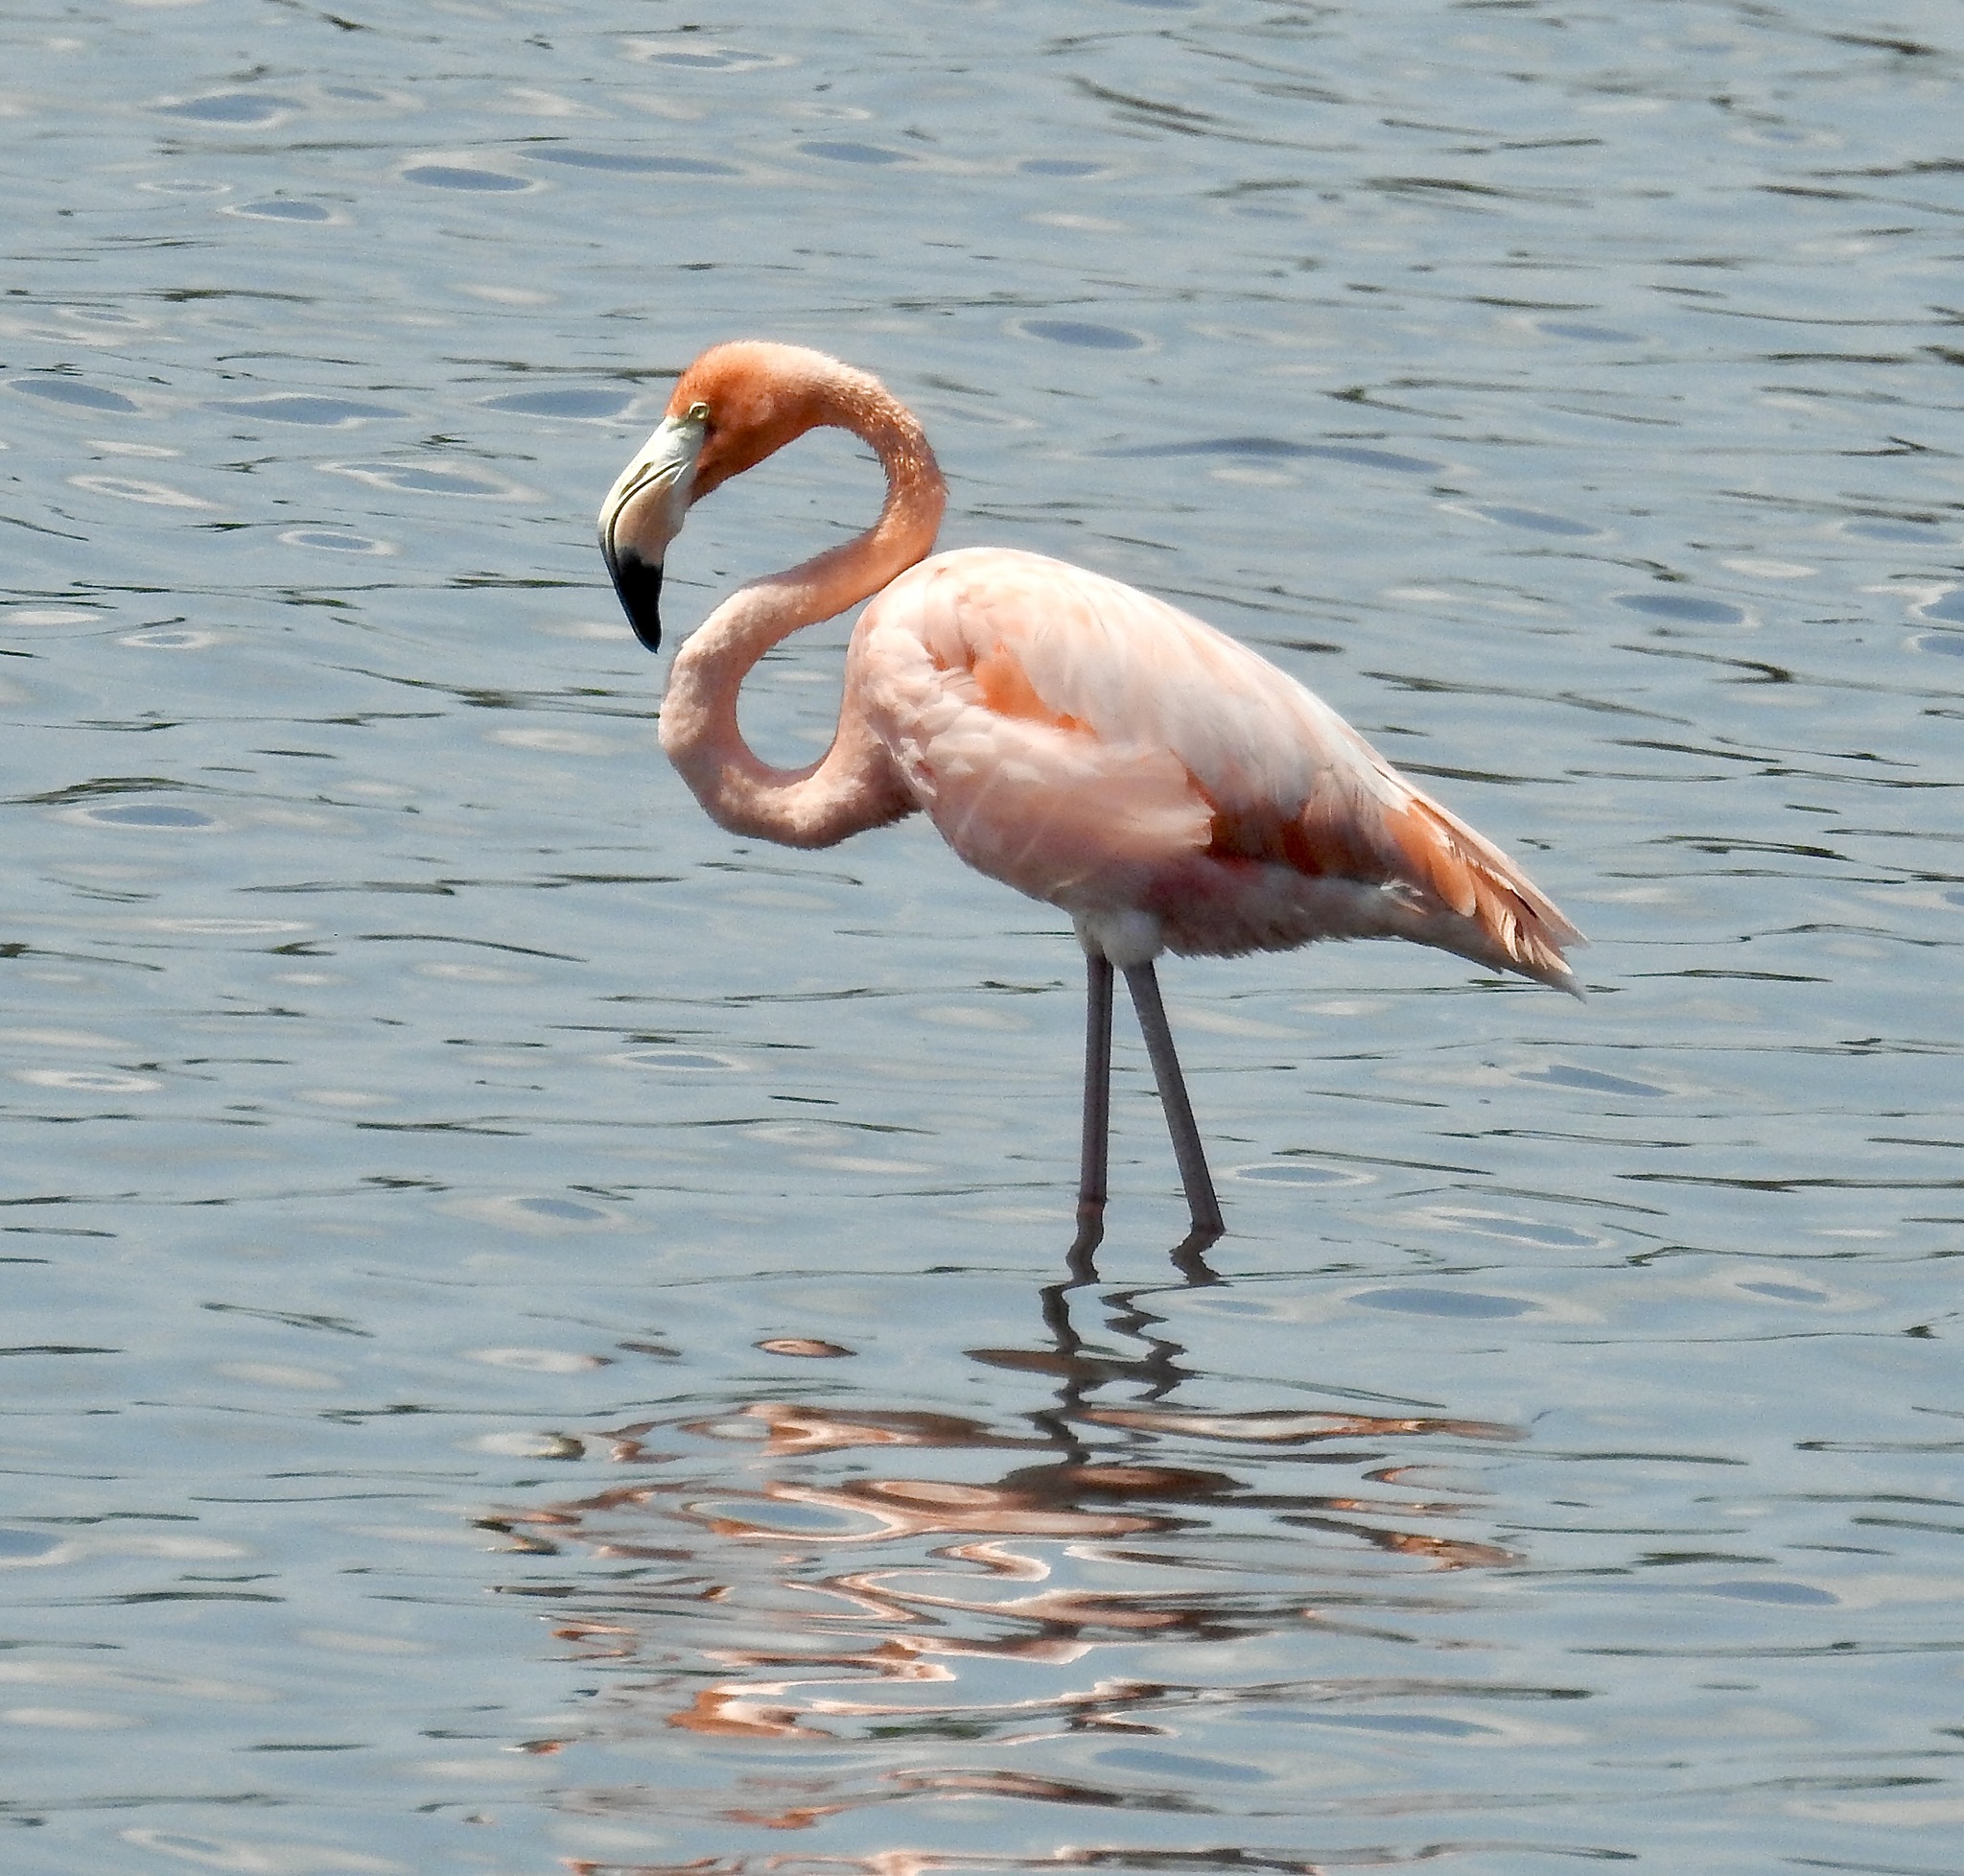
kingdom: Animalia
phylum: Chordata
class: Aves
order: Phoenicopteriformes
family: Phoenicopteridae
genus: Phoenicopterus
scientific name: Phoenicopterus ruber
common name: American flamingo
